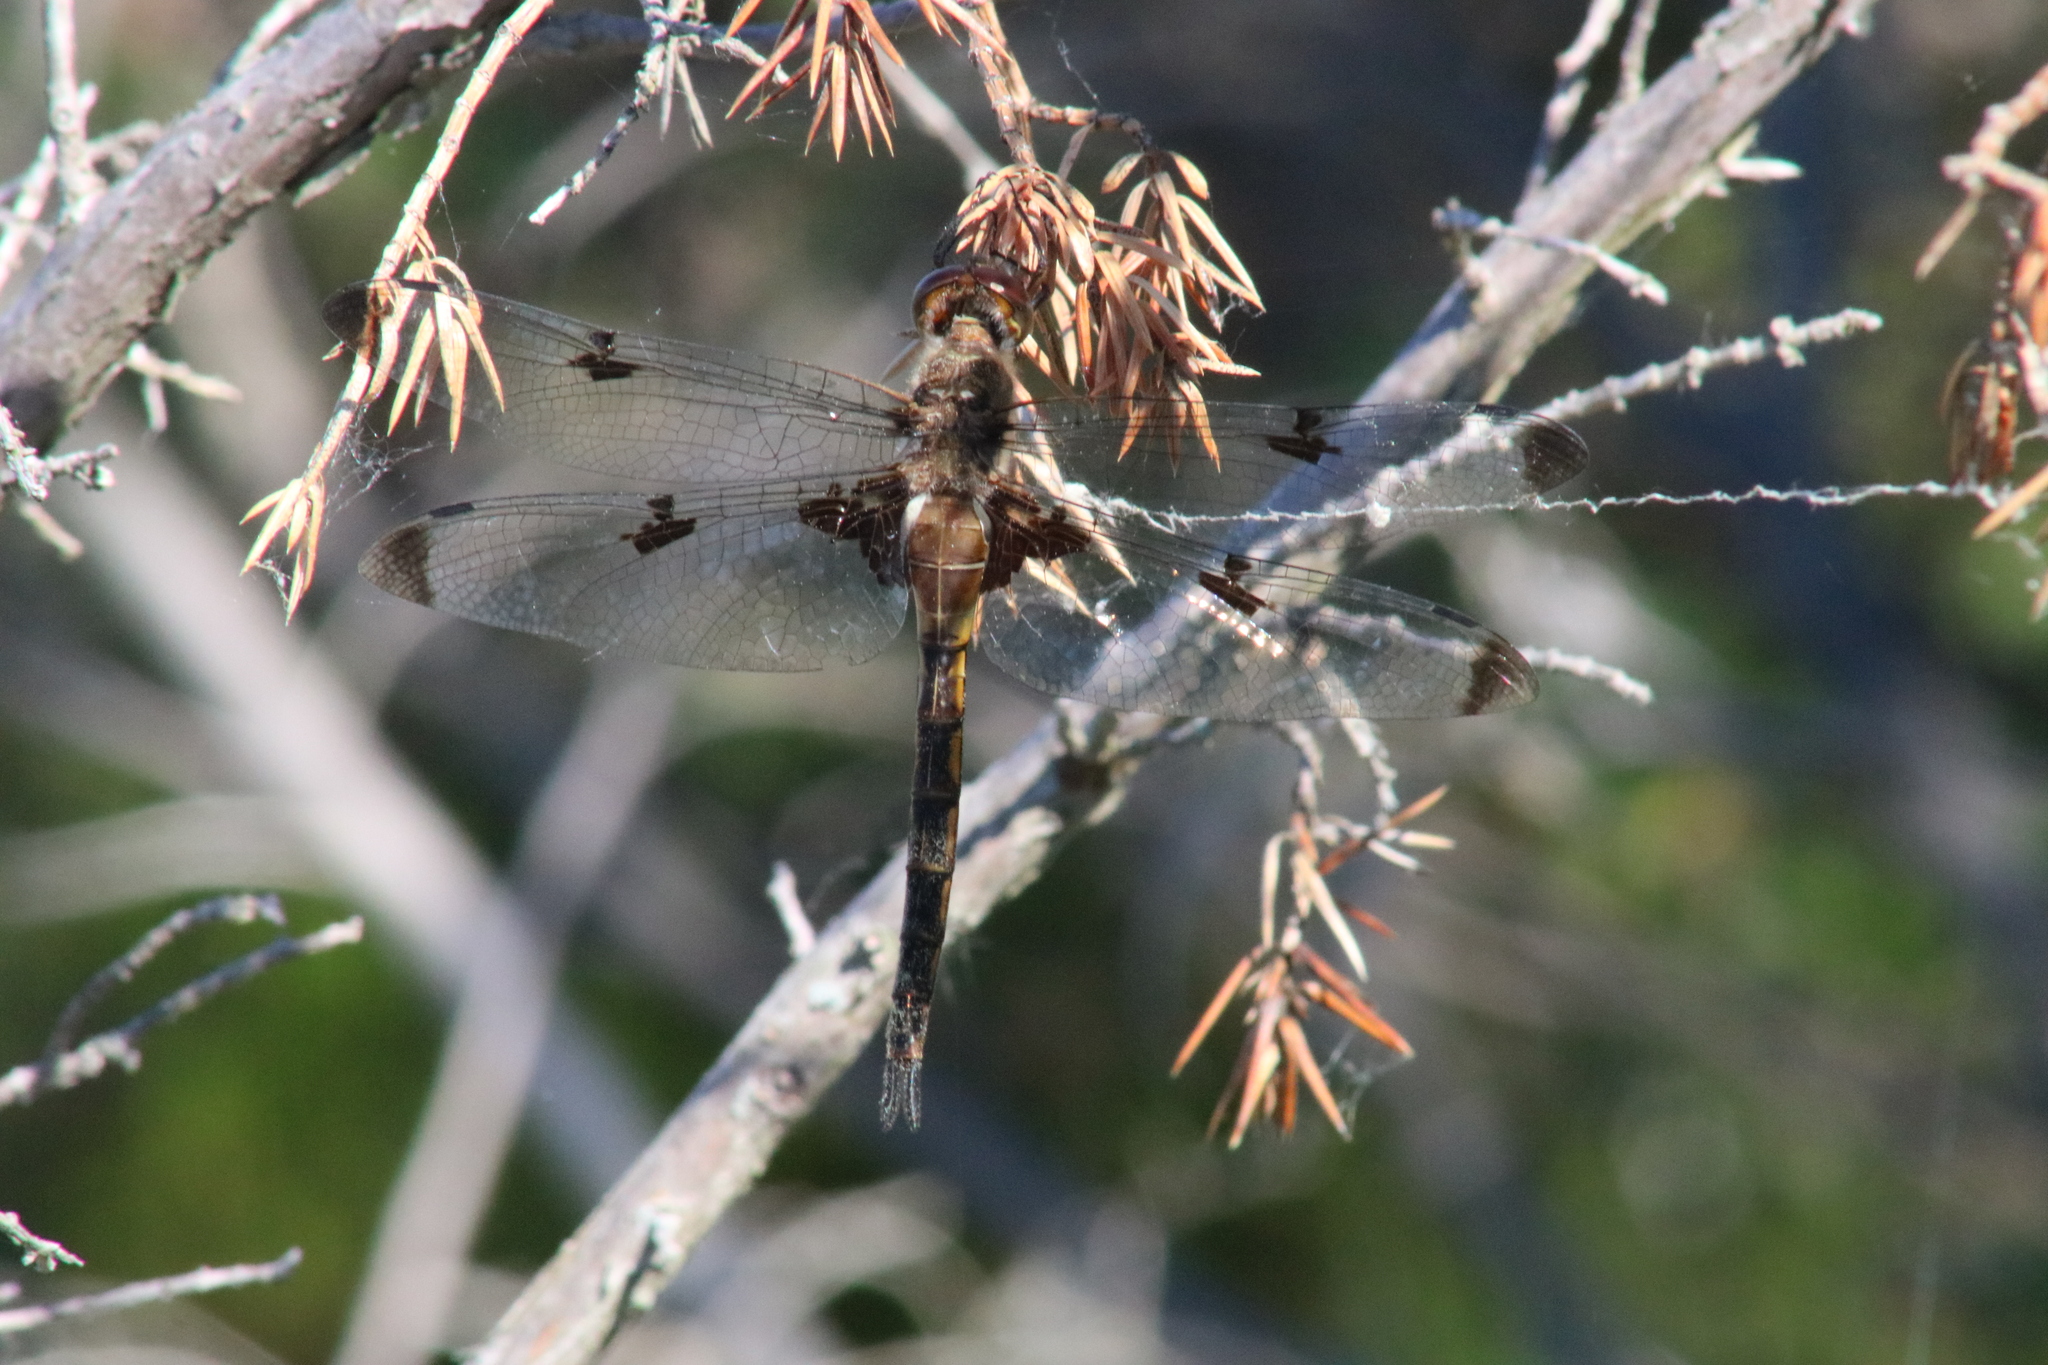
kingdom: Animalia
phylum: Arthropoda
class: Insecta
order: Odonata
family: Corduliidae
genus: Epitheca
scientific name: Epitheca princeps
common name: Prince baskettail
